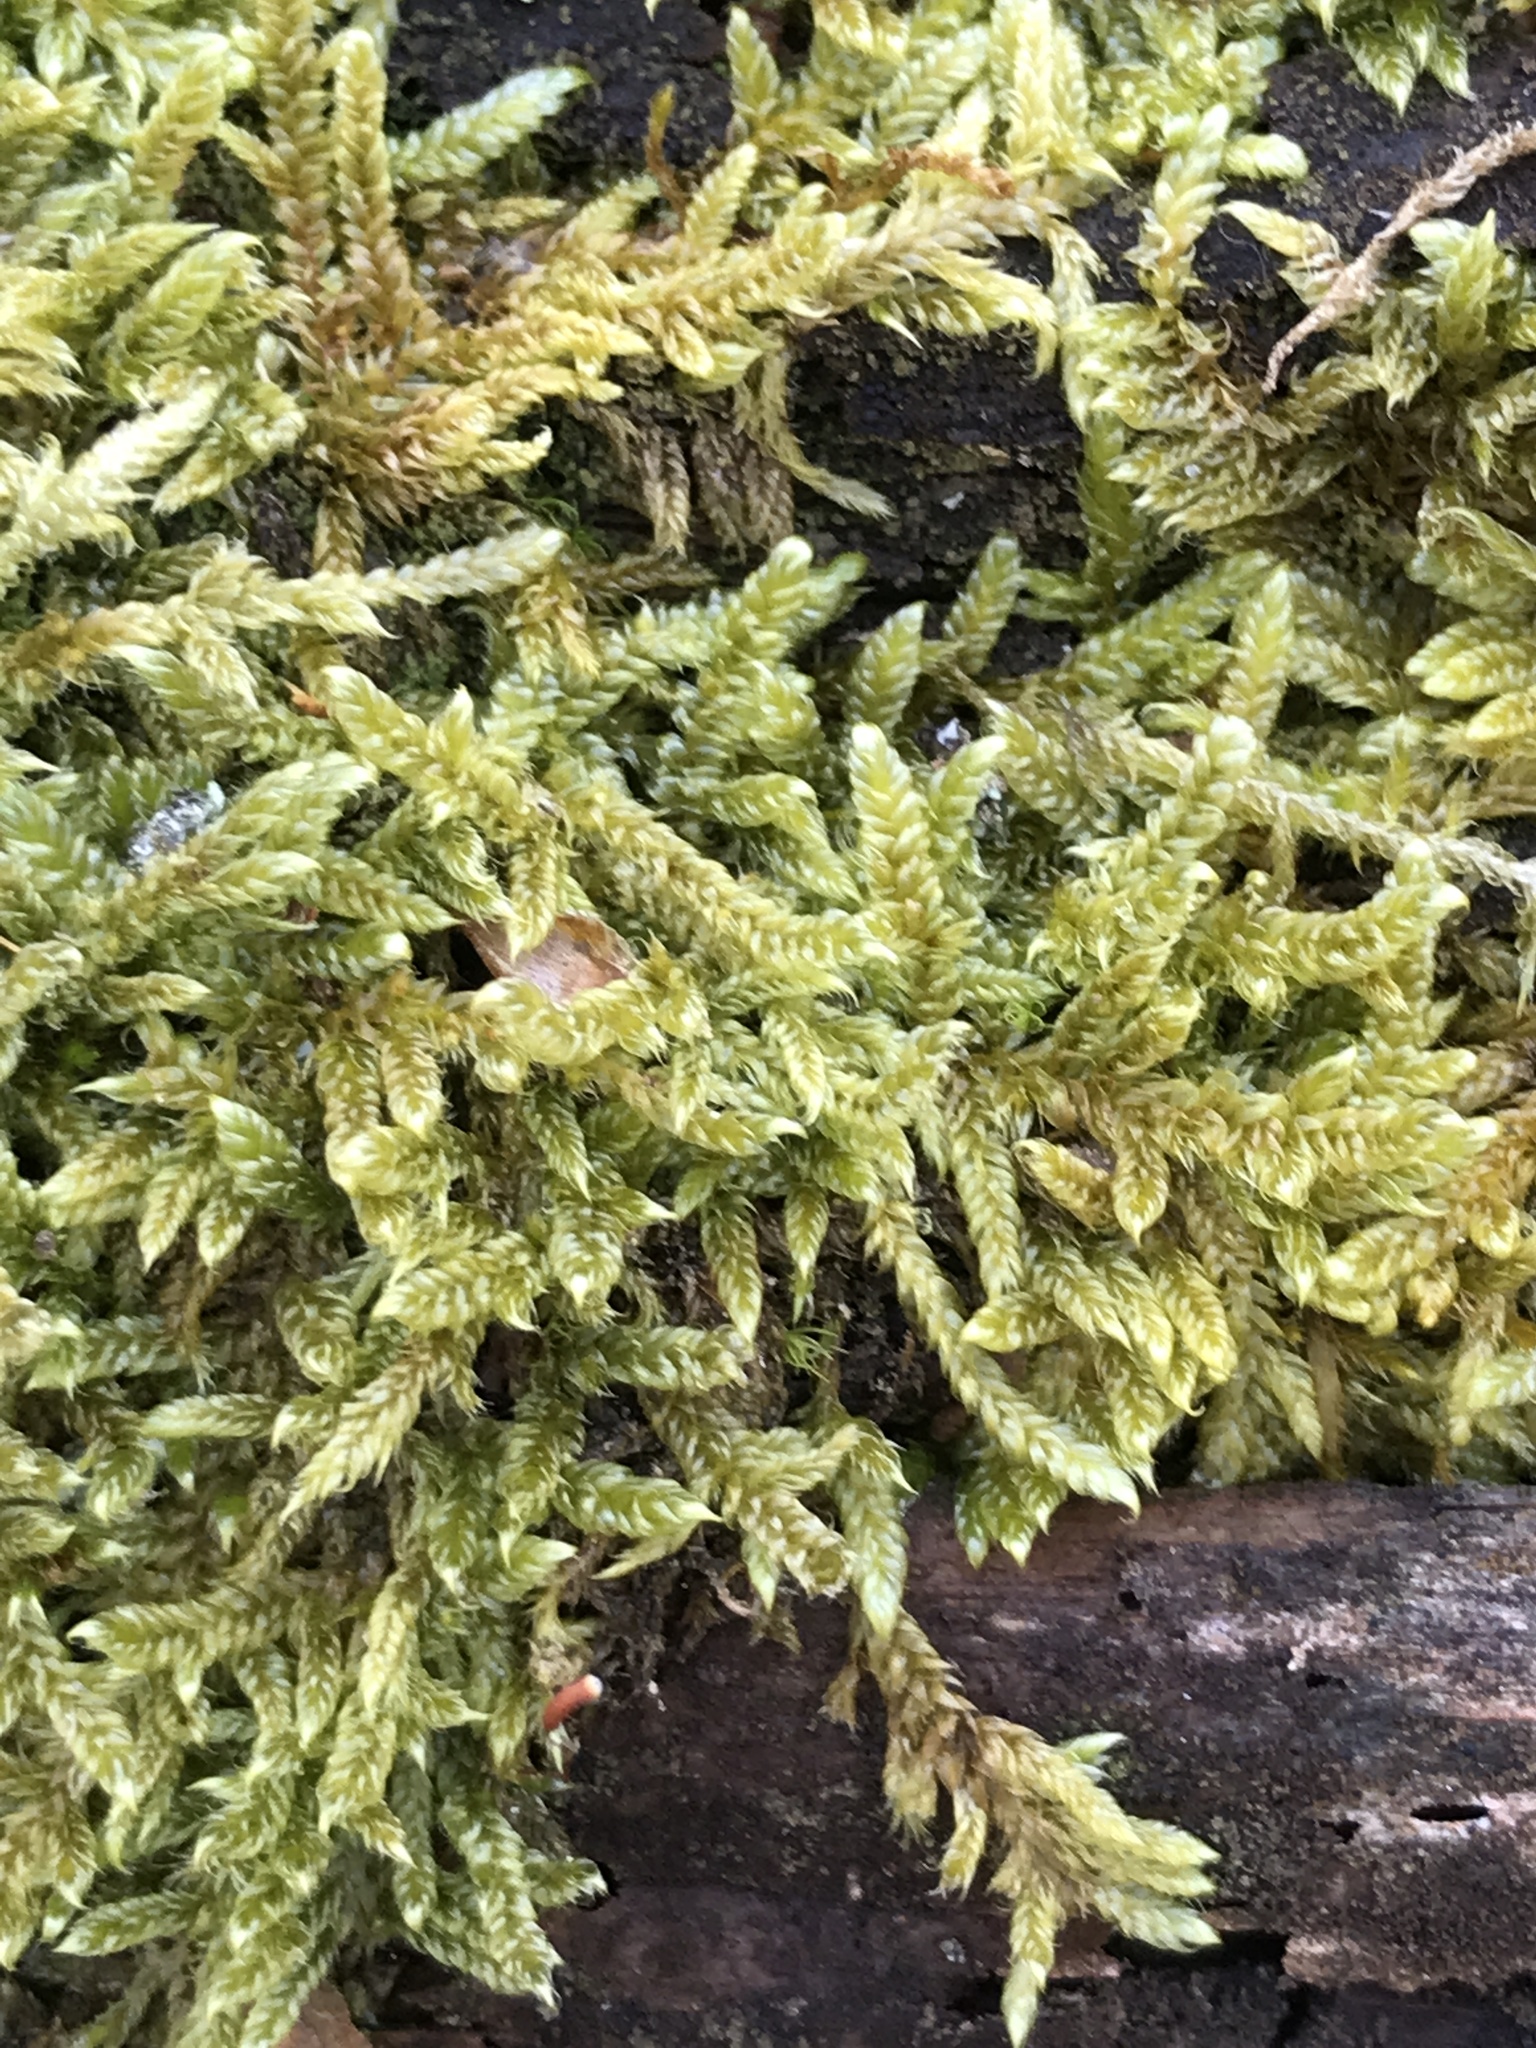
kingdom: Plantae
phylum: Bryophyta
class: Bryopsida
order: Hypnales
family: Hypnaceae
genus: Hypnum
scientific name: Hypnum cupressiforme
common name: Cypress-leaved plait-moss
